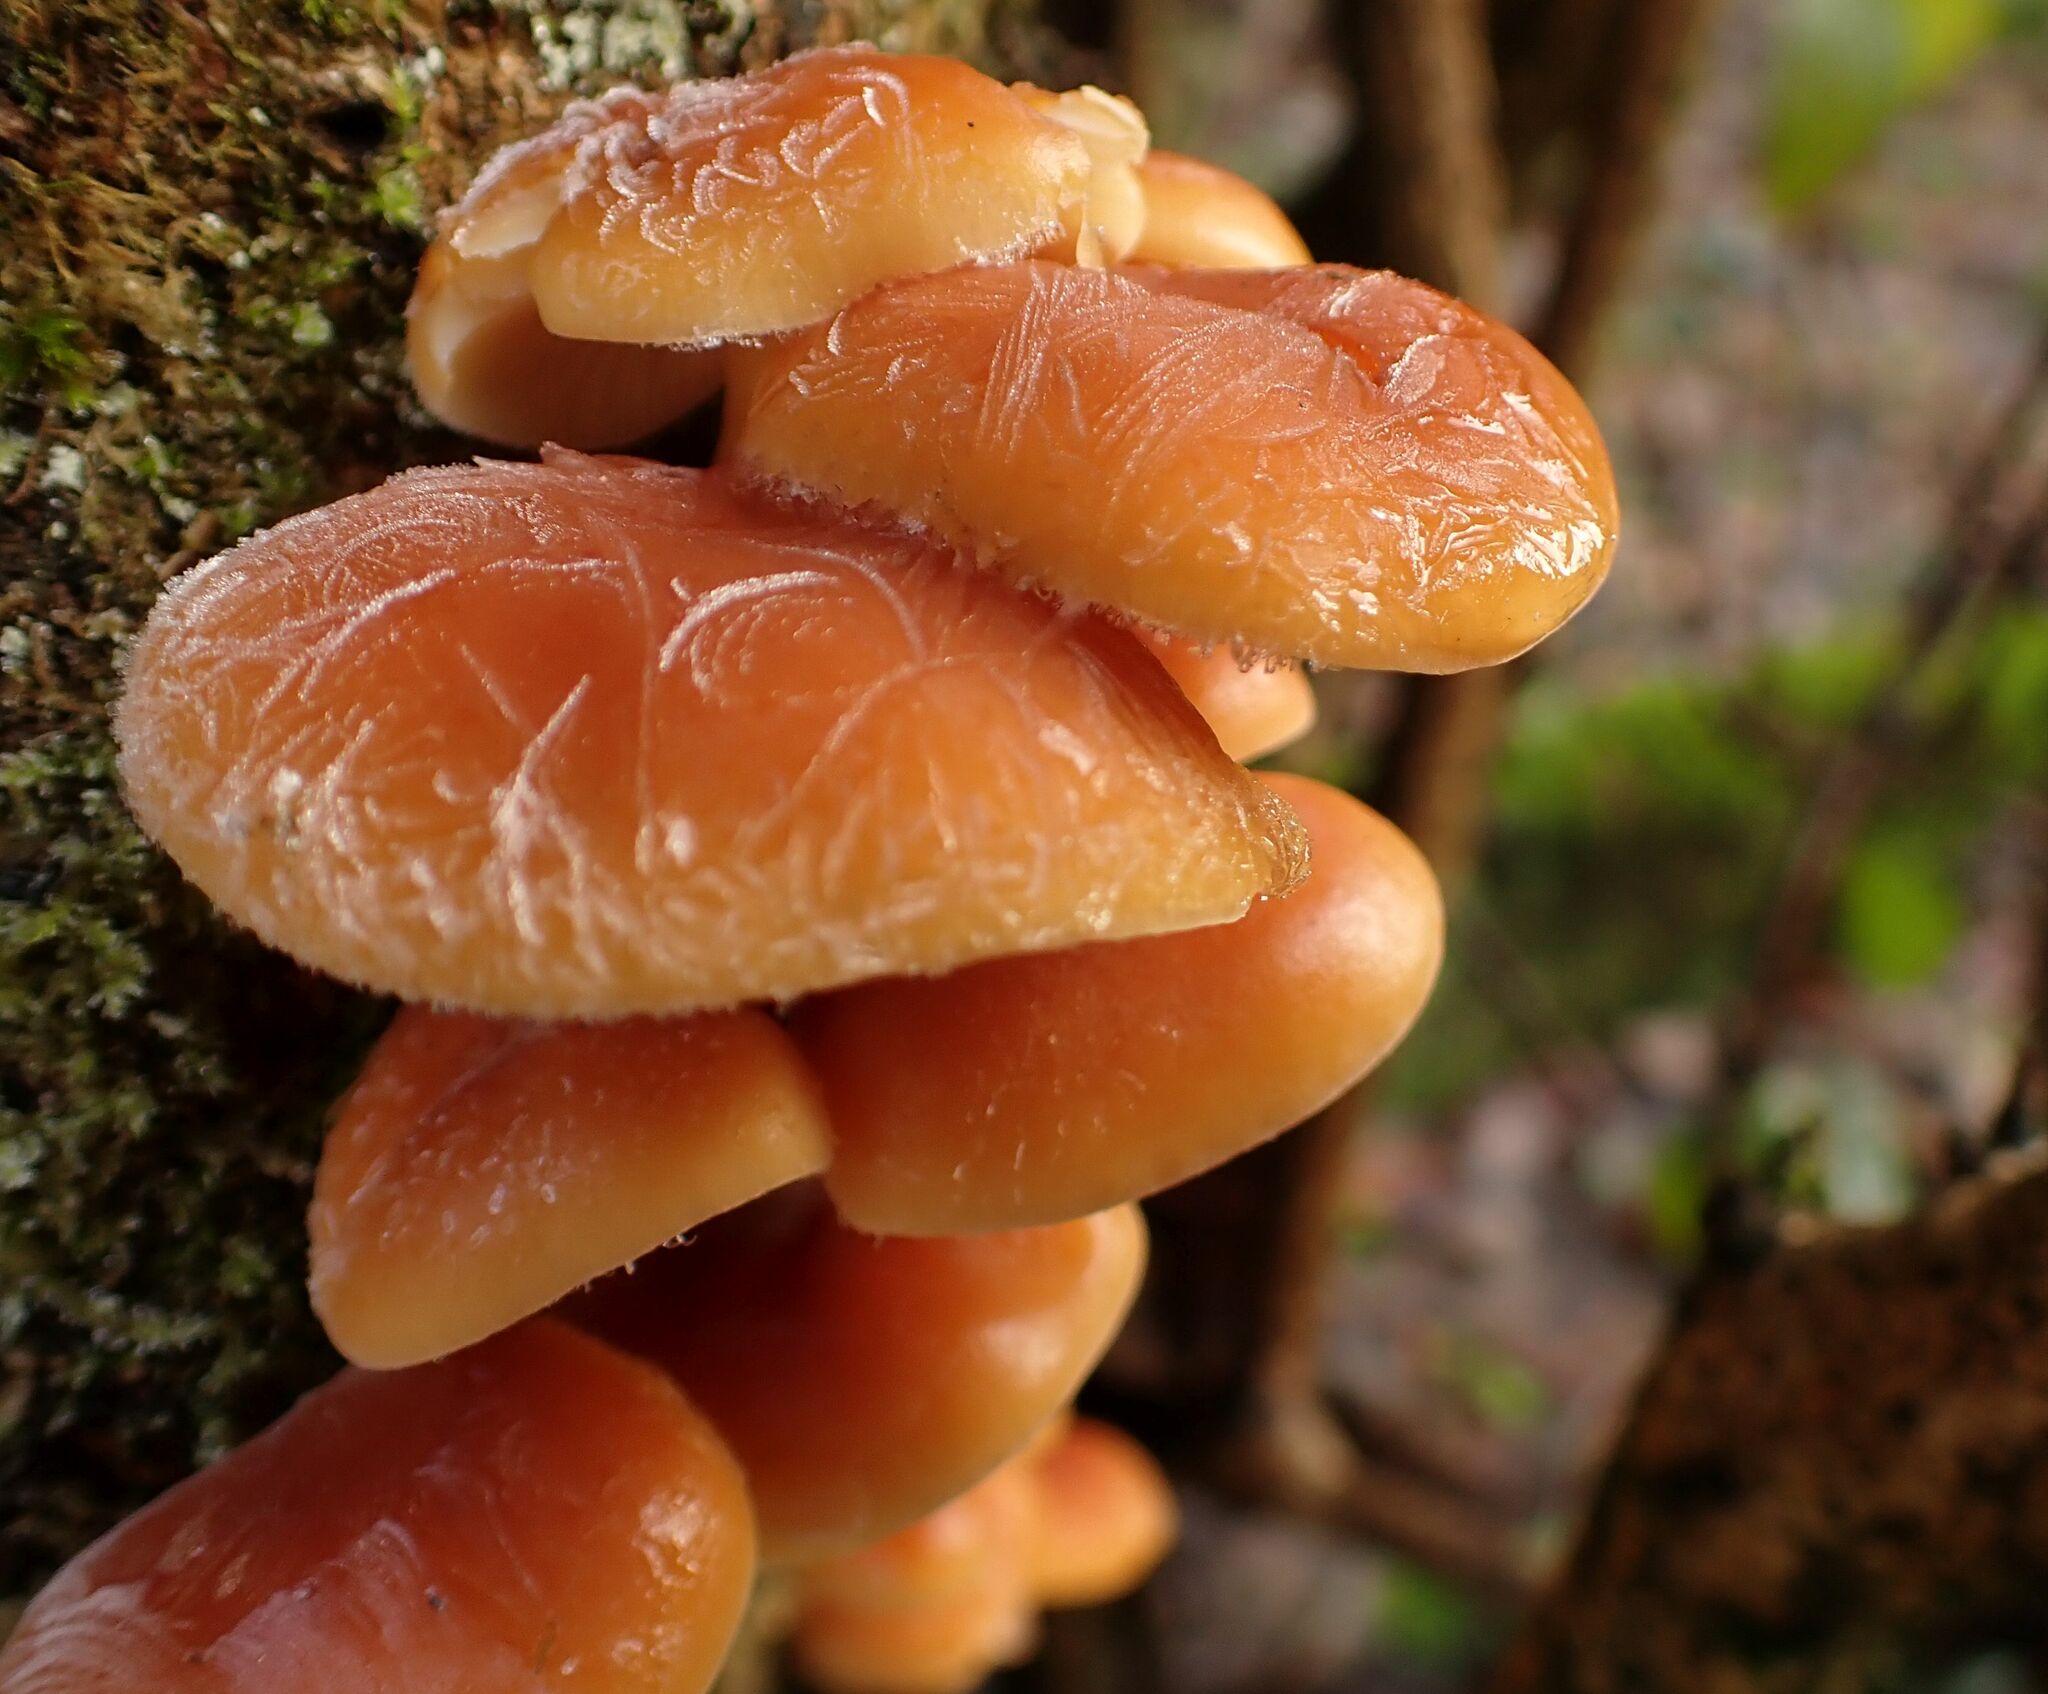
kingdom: Fungi
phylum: Basidiomycota
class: Agaricomycetes
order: Agaricales
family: Physalacriaceae
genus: Flammulina
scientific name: Flammulina
